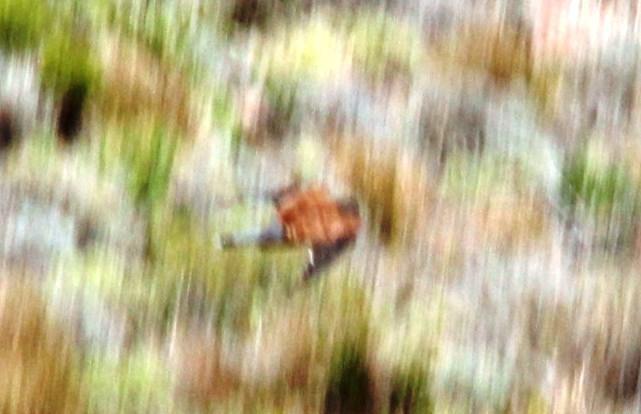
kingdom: Animalia
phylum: Chordata
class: Aves
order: Falconiformes
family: Falconidae
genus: Falco
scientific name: Falco rupicolus
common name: Rock kestrel
